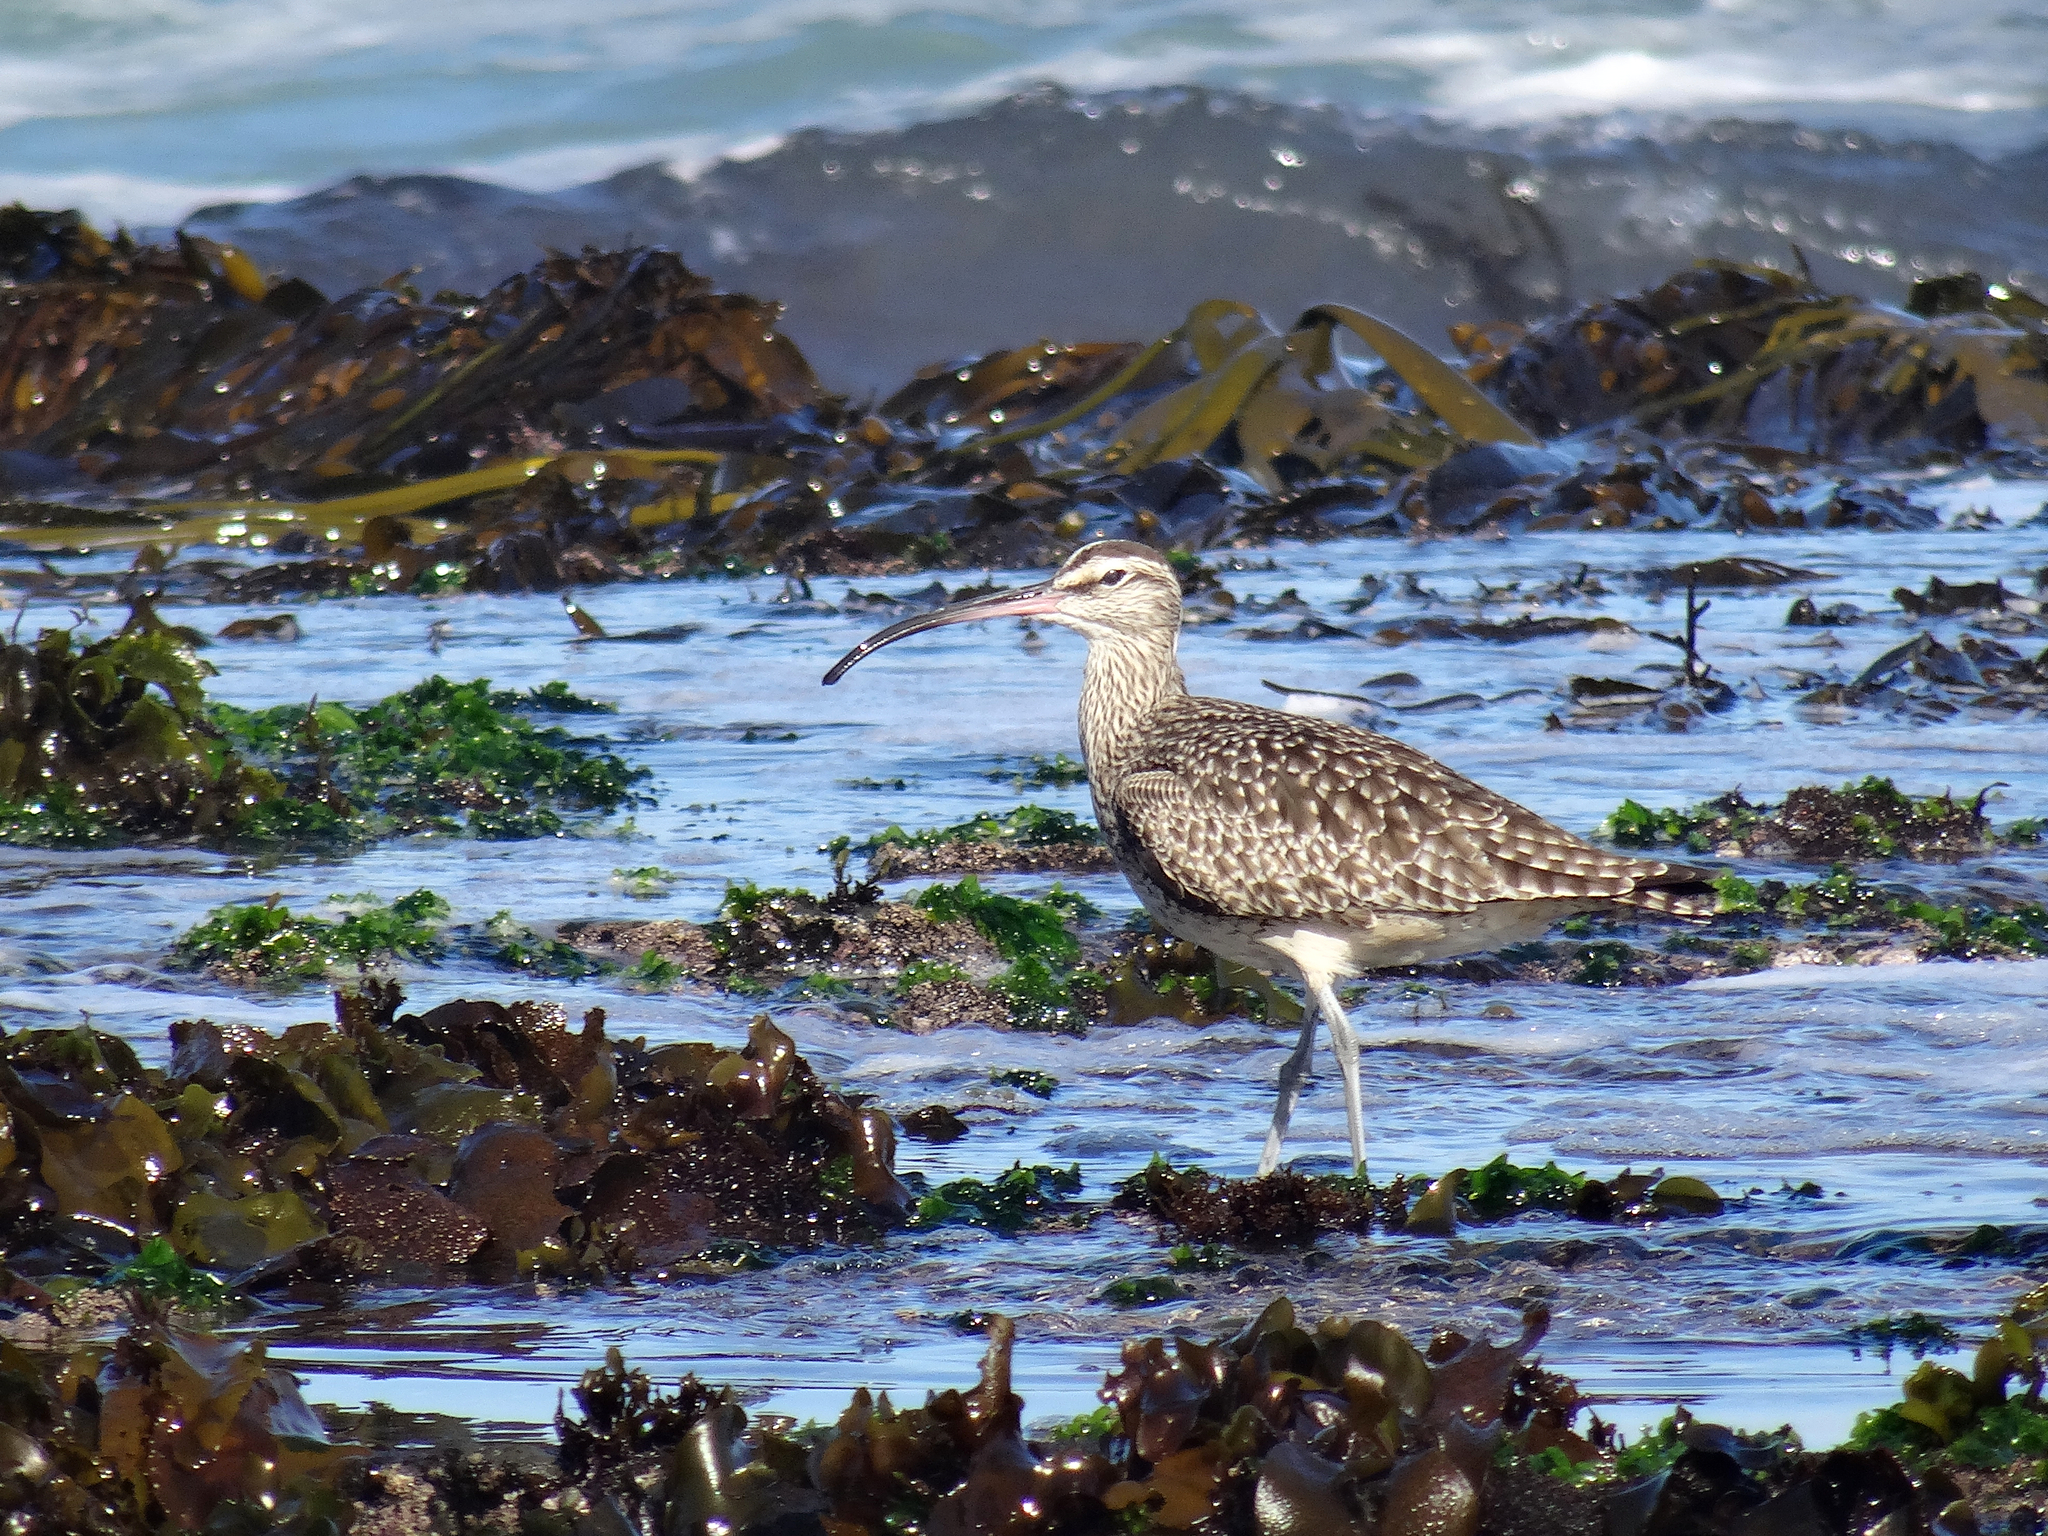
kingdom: Animalia
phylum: Chordata
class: Aves
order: Charadriiformes
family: Scolopacidae
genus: Numenius
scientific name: Numenius phaeopus
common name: Whimbrel
